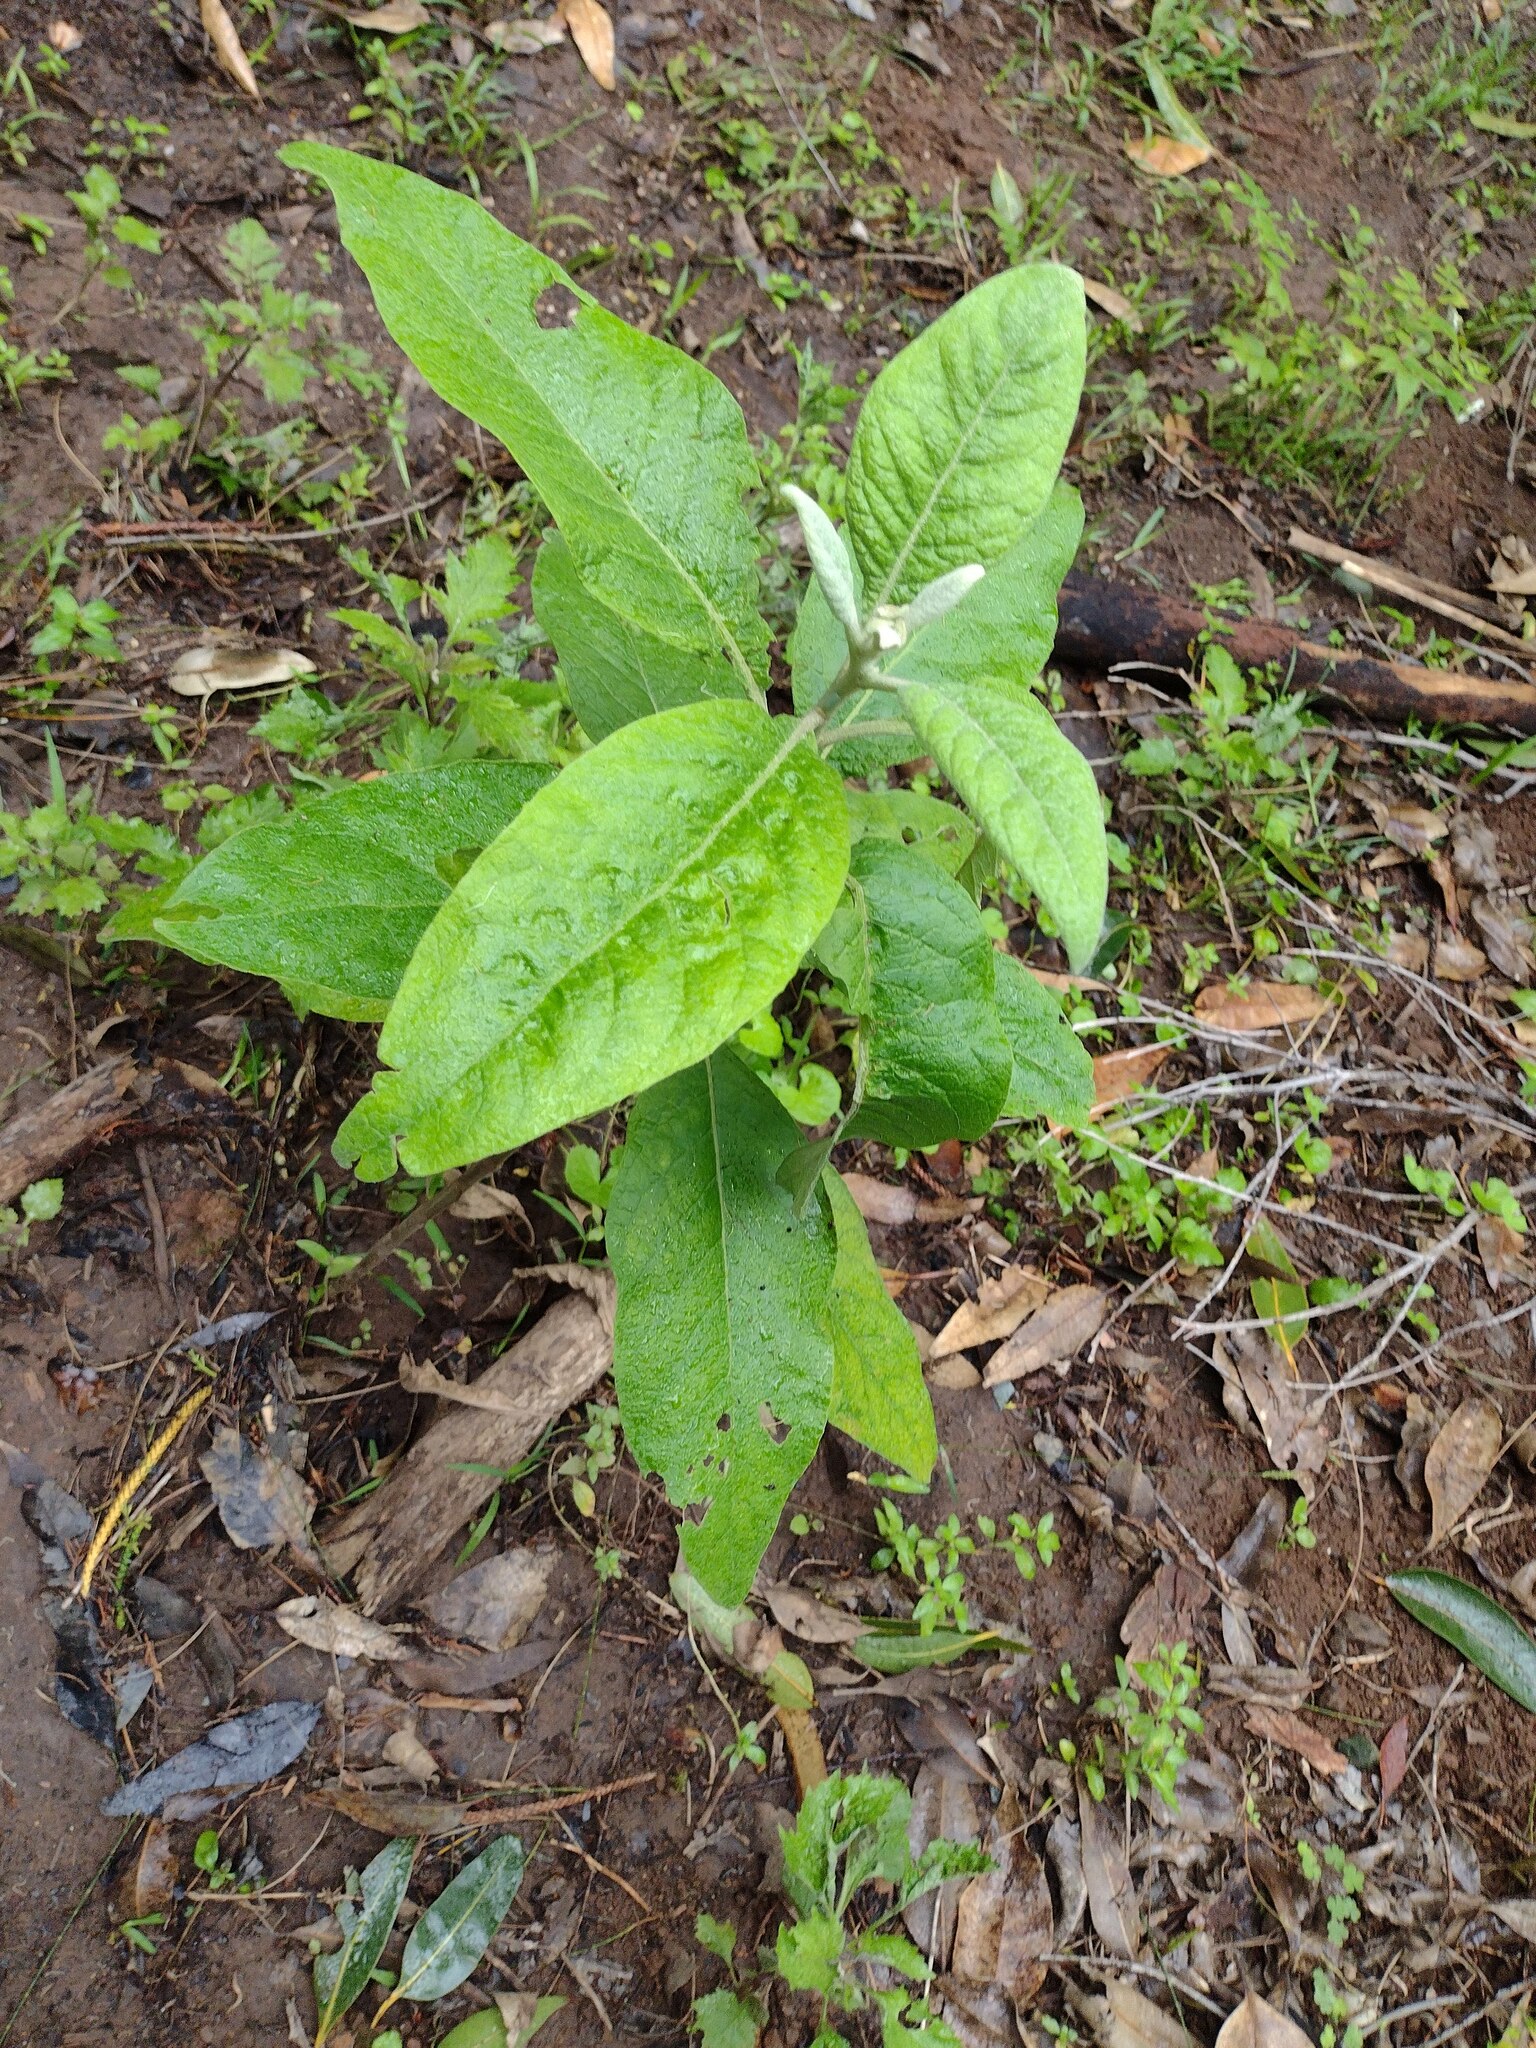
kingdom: Plantae
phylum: Tracheophyta
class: Magnoliopsida
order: Asterales
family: Asteraceae
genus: Pluchea
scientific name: Pluchea carolinensis
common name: Marsh fleabane
